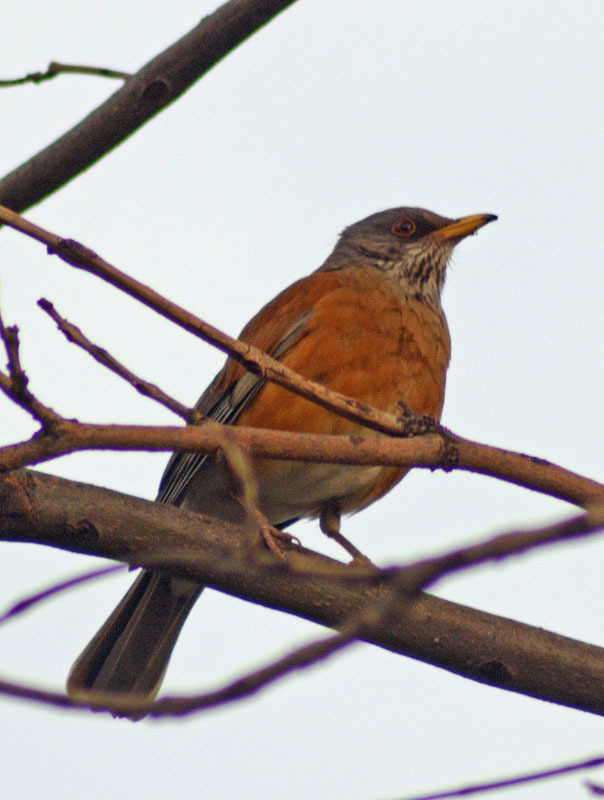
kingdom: Animalia
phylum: Chordata
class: Aves
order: Passeriformes
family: Turdidae
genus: Turdus
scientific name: Turdus rufopalliatus
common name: Rufous-backed robin
